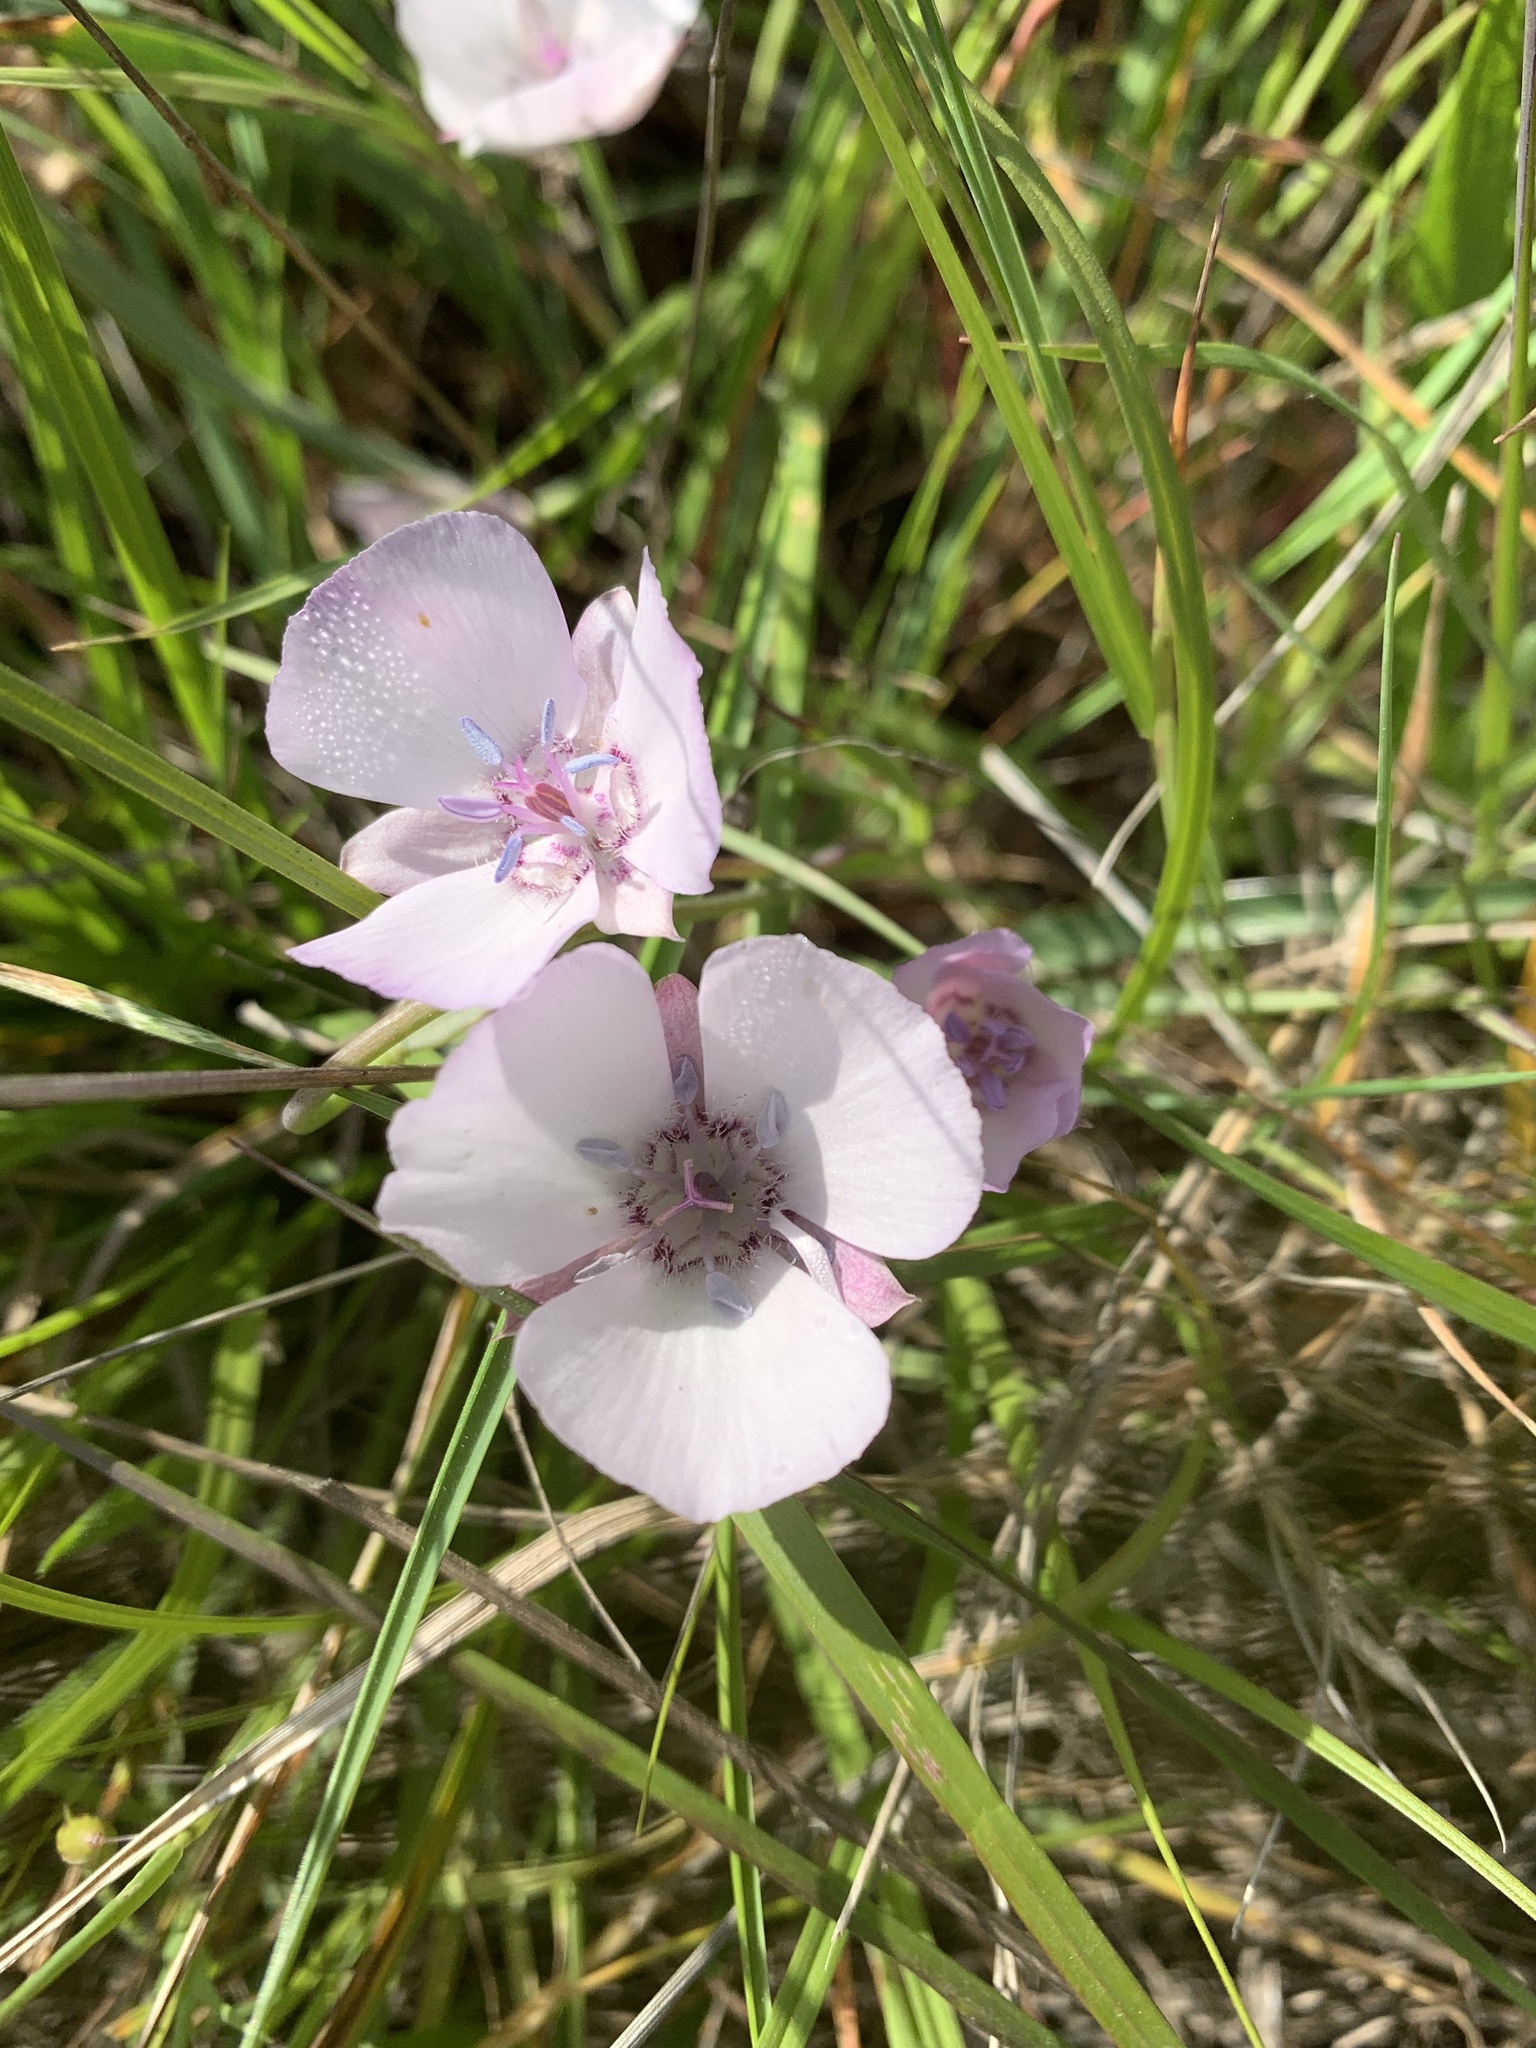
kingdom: Plantae
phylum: Tracheophyta
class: Liliopsida
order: Liliales
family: Liliaceae
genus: Calochortus
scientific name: Calochortus umbellatus
